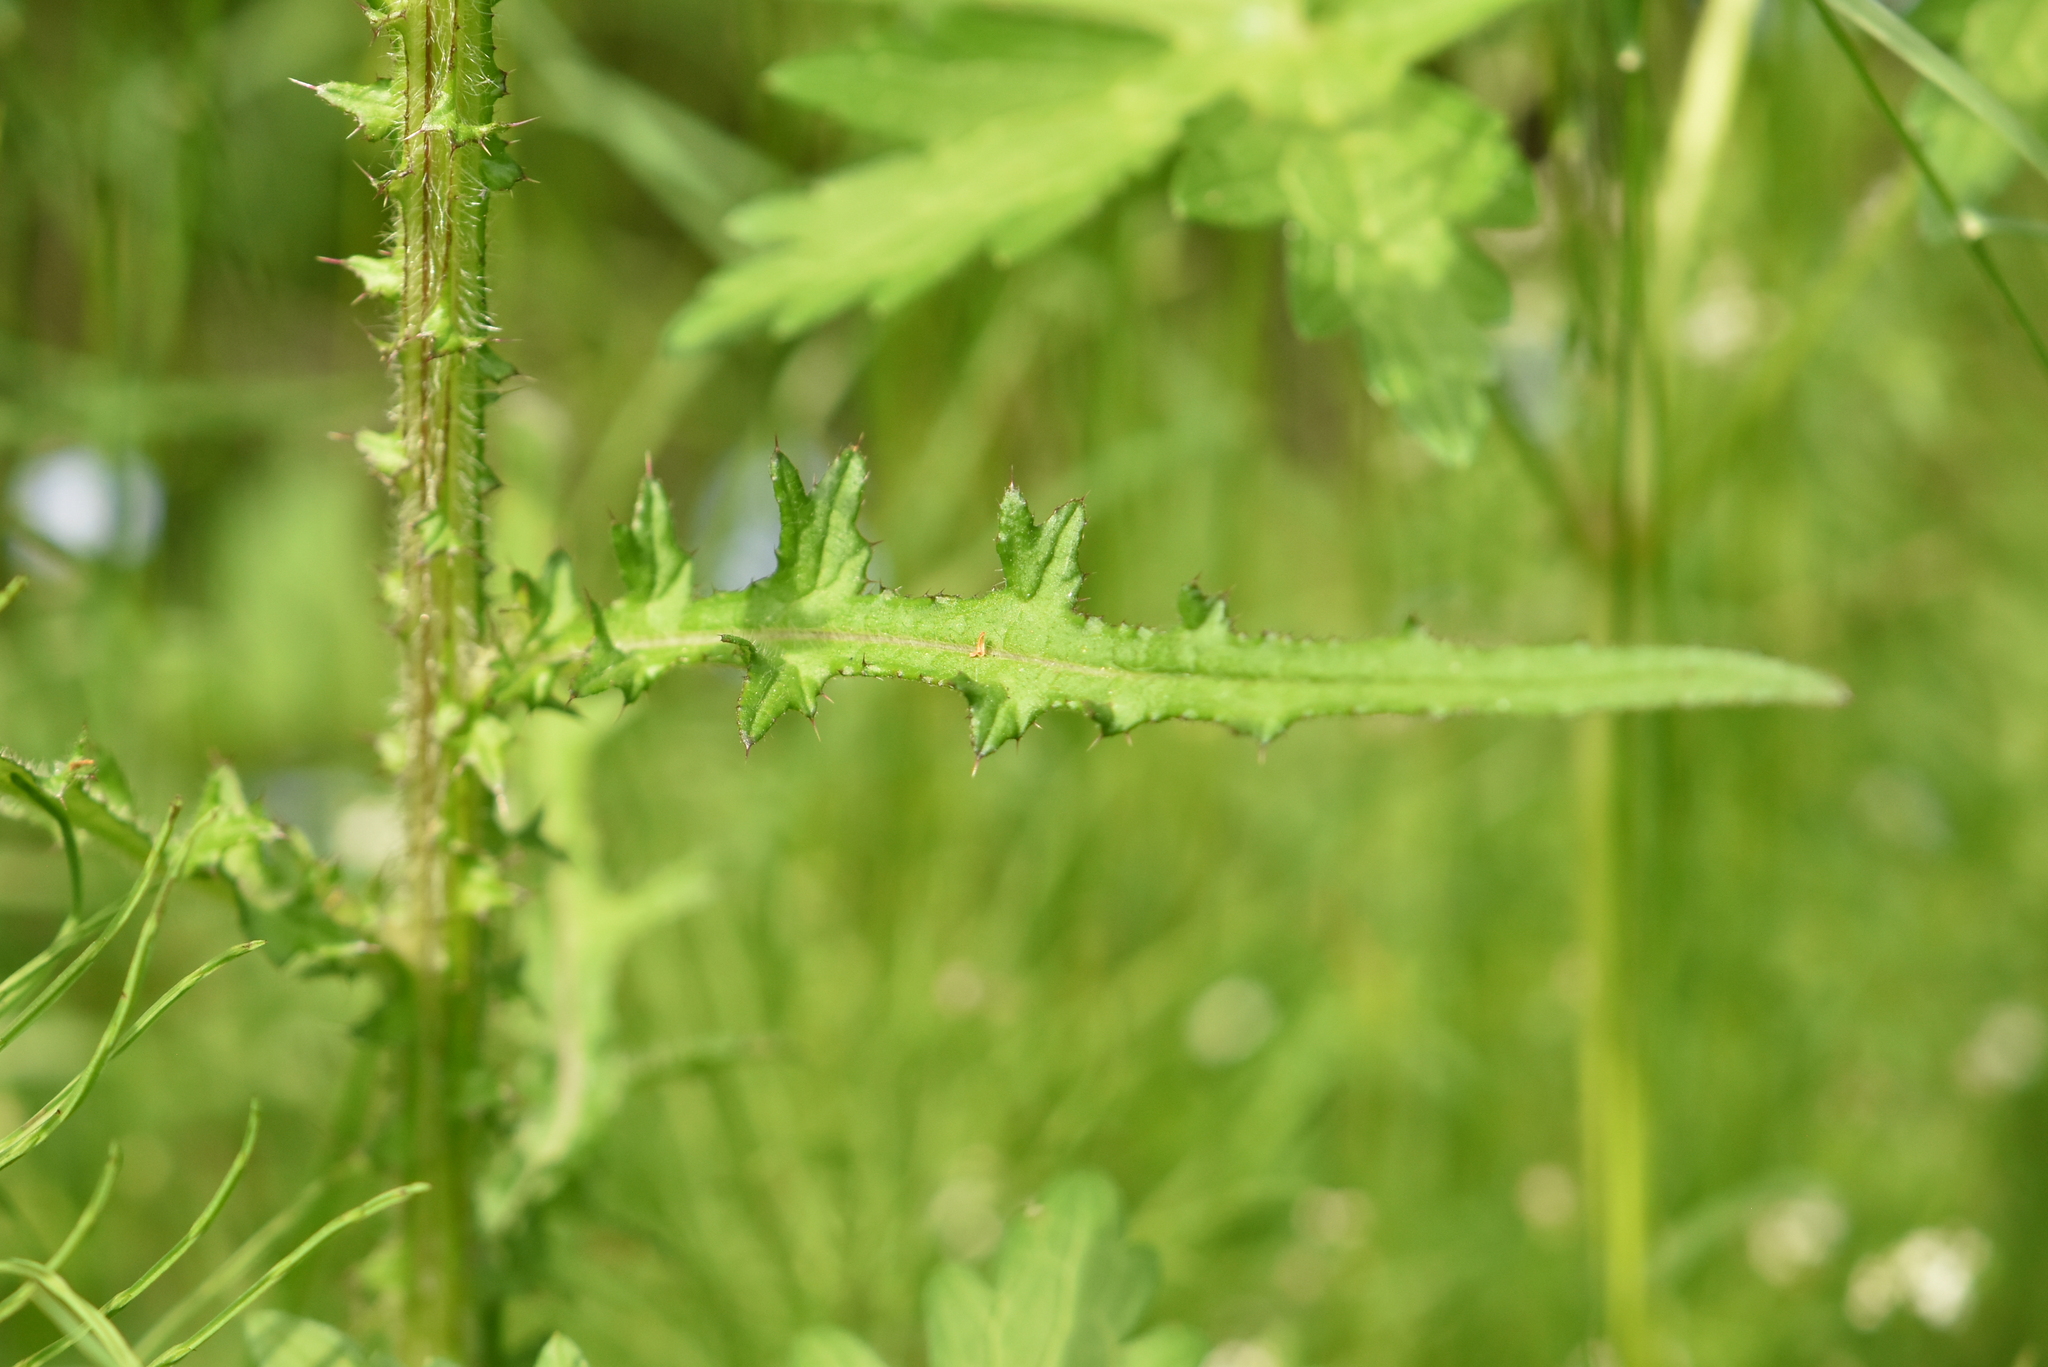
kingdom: Plantae
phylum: Tracheophyta
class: Magnoliopsida
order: Asterales
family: Asteraceae
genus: Cirsium
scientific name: Cirsium palustre
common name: Marsh thistle
